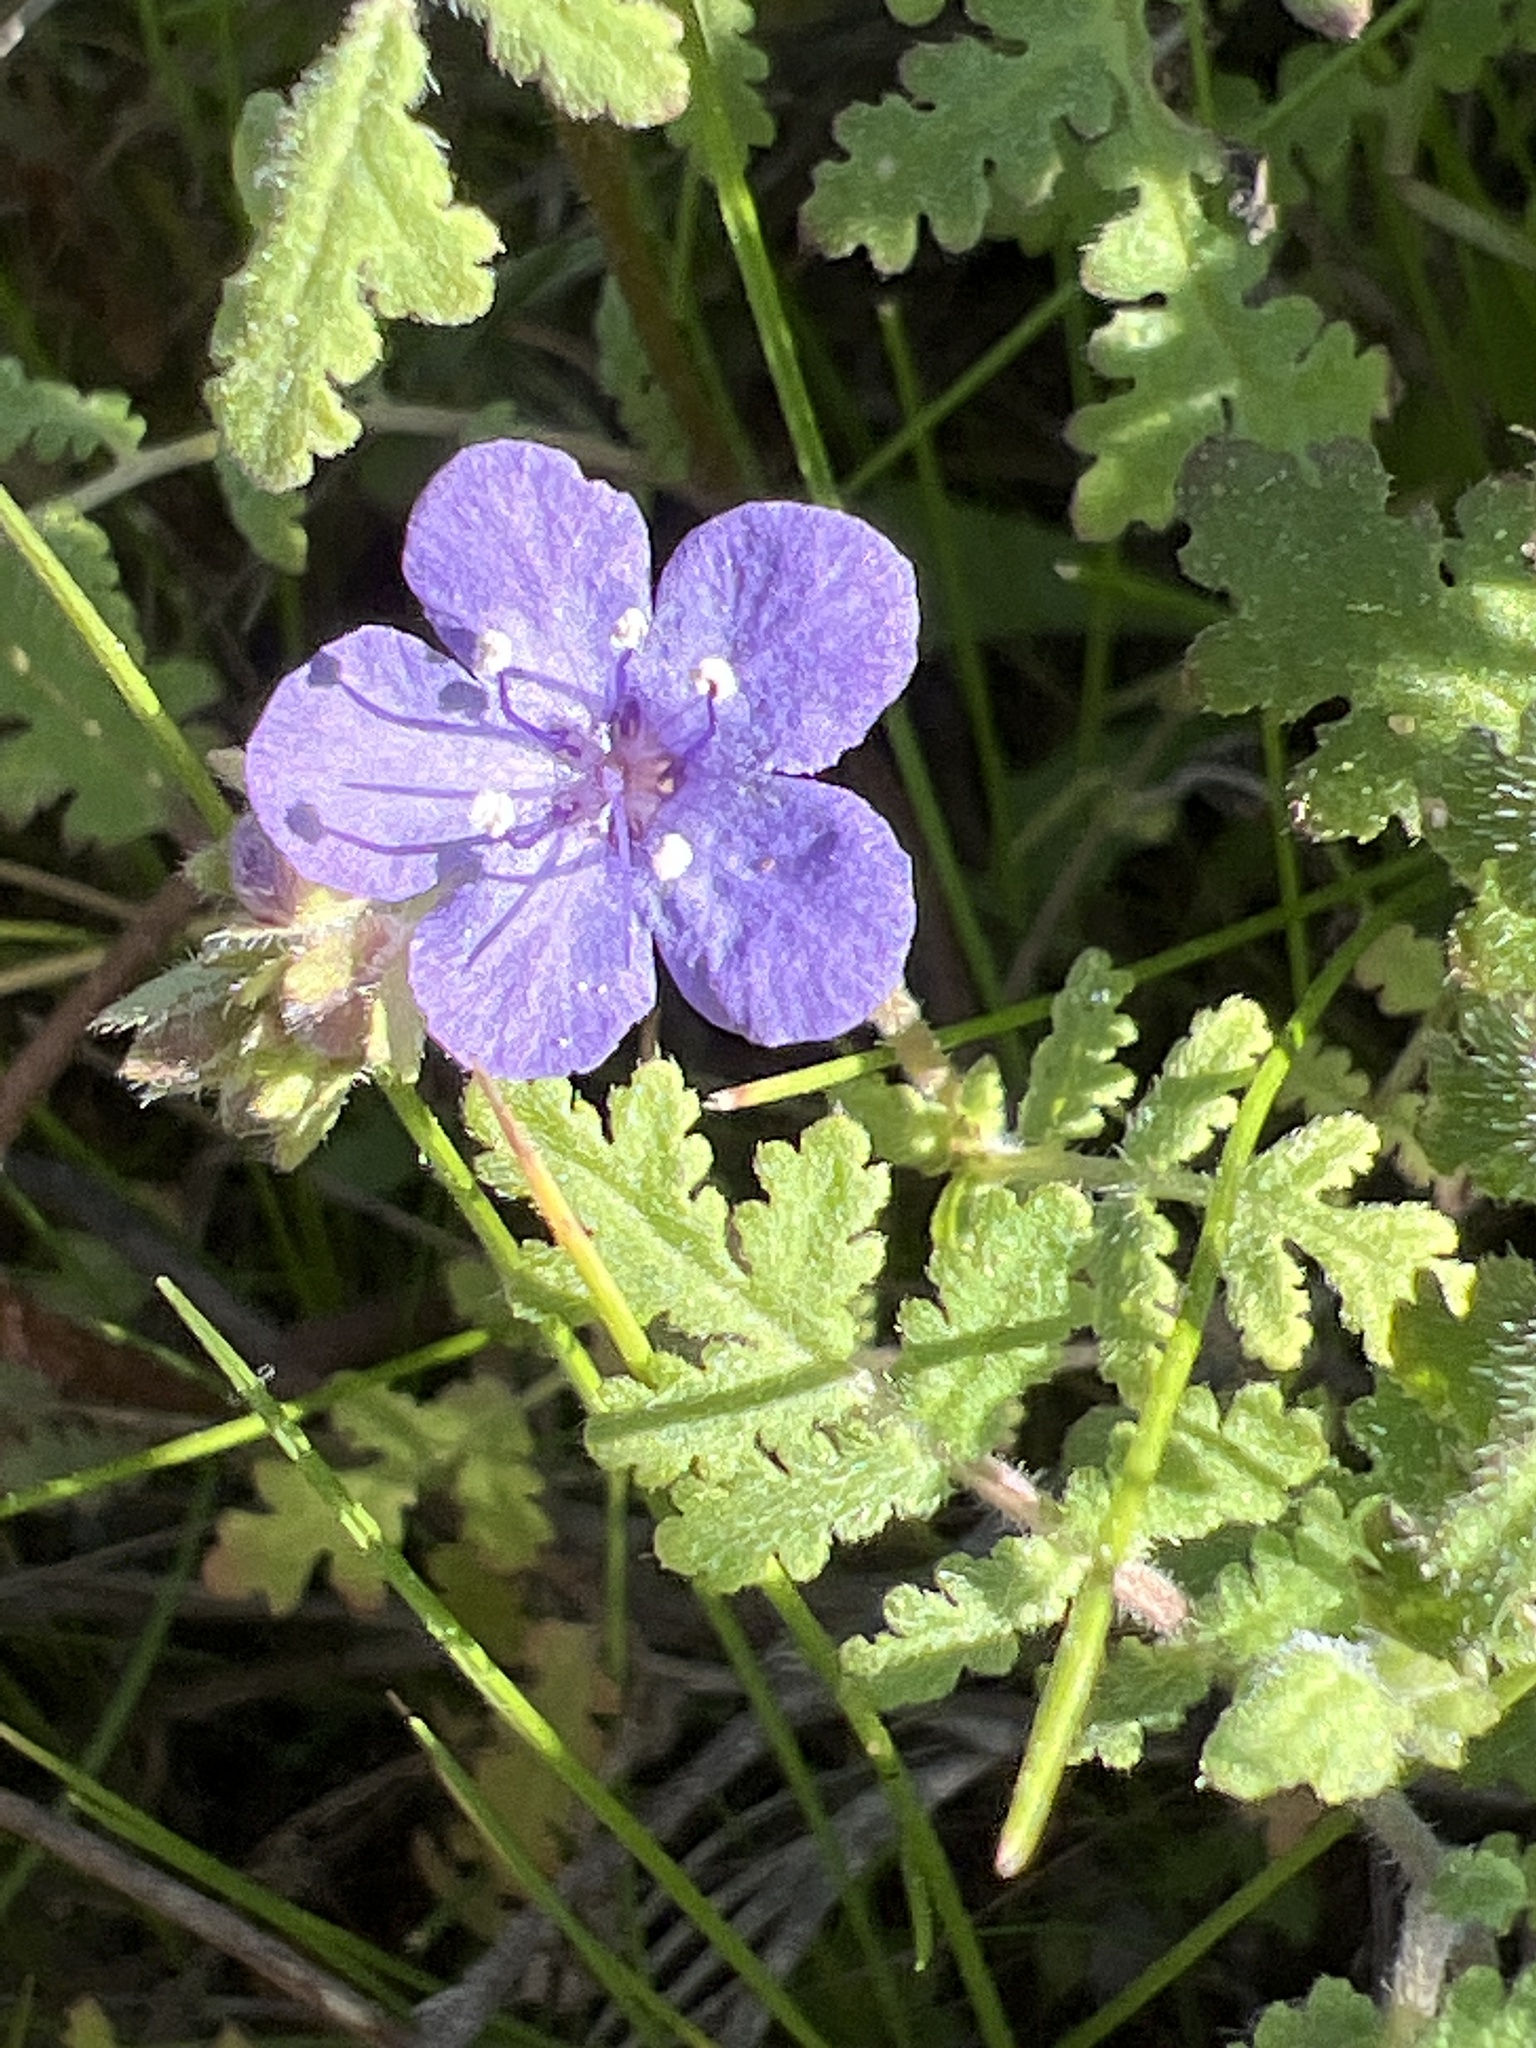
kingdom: Plantae
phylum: Tracheophyta
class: Magnoliopsida
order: Boraginales
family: Hydrophyllaceae
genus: Phacelia
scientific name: Phacelia distans
